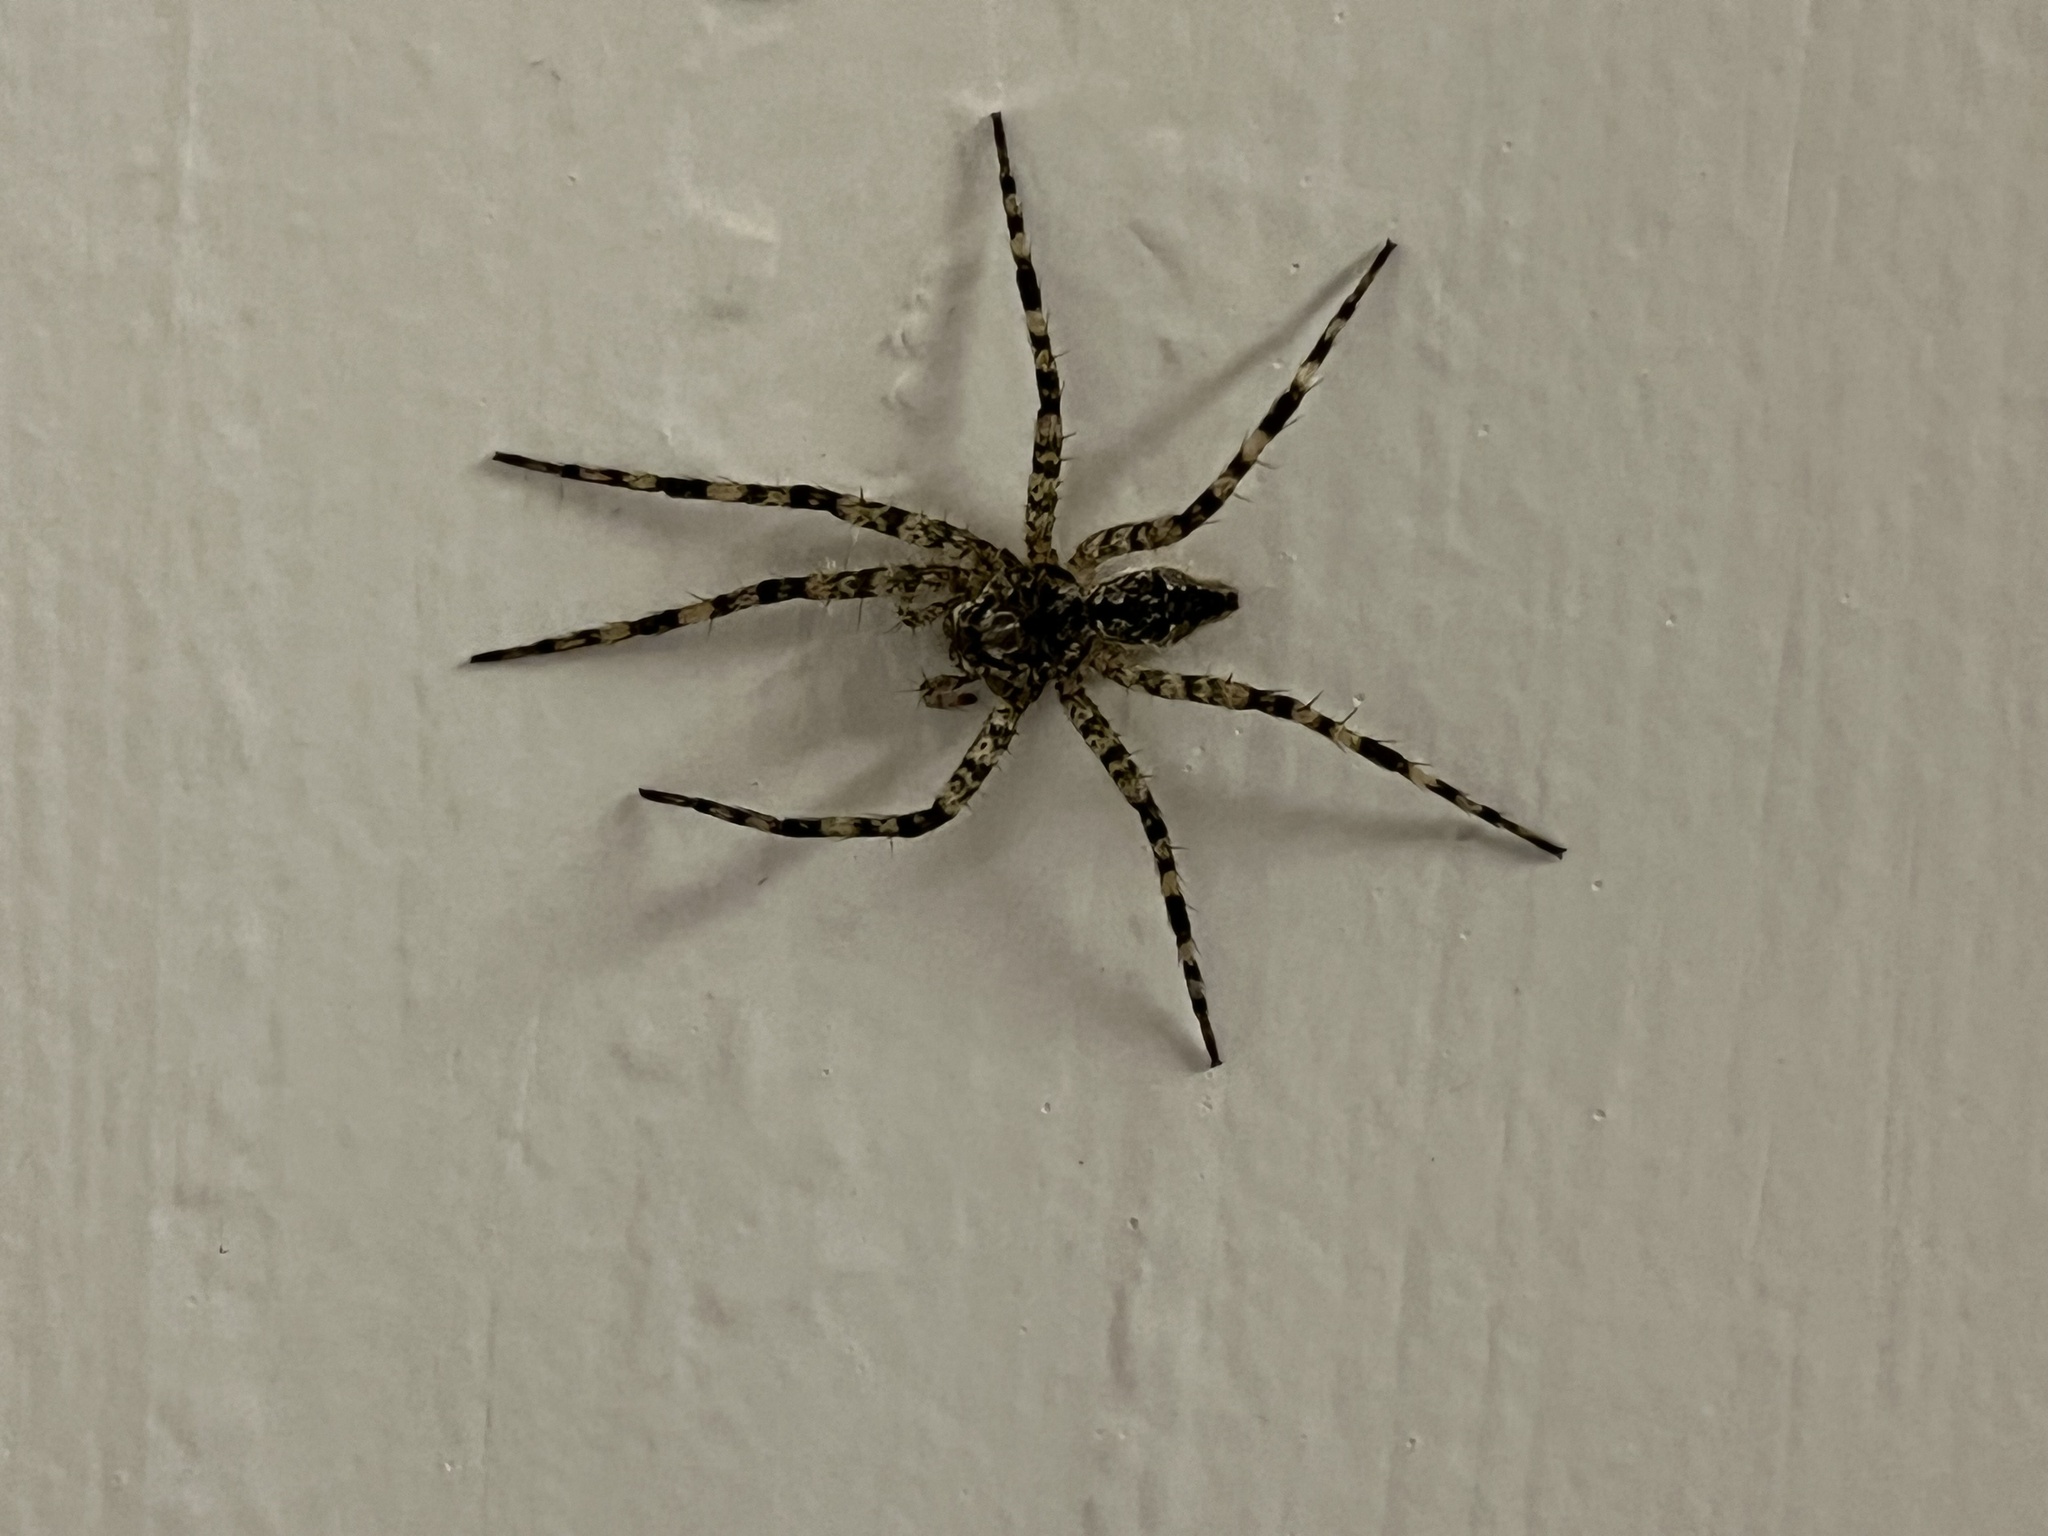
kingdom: Animalia
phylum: Arthropoda
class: Arachnida
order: Araneae
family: Pisauridae
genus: Dolomedes
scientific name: Dolomedes albineus
